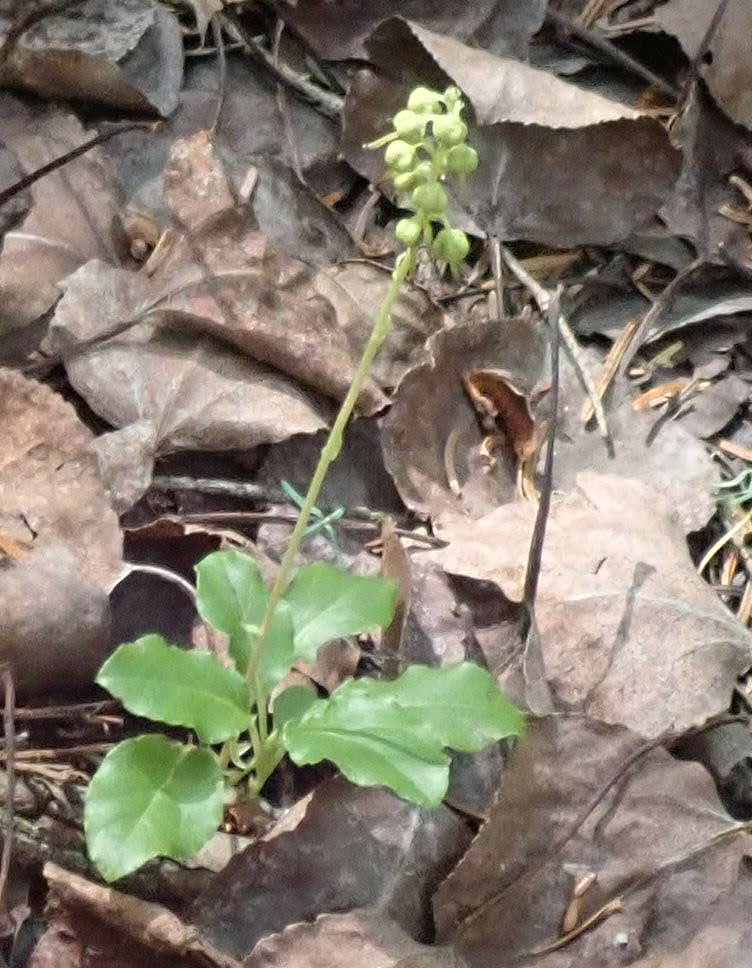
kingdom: Plantae
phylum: Tracheophyta
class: Magnoliopsida
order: Ericales
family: Ericaceae
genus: Orthilia
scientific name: Orthilia secunda
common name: One-sided orthilia
